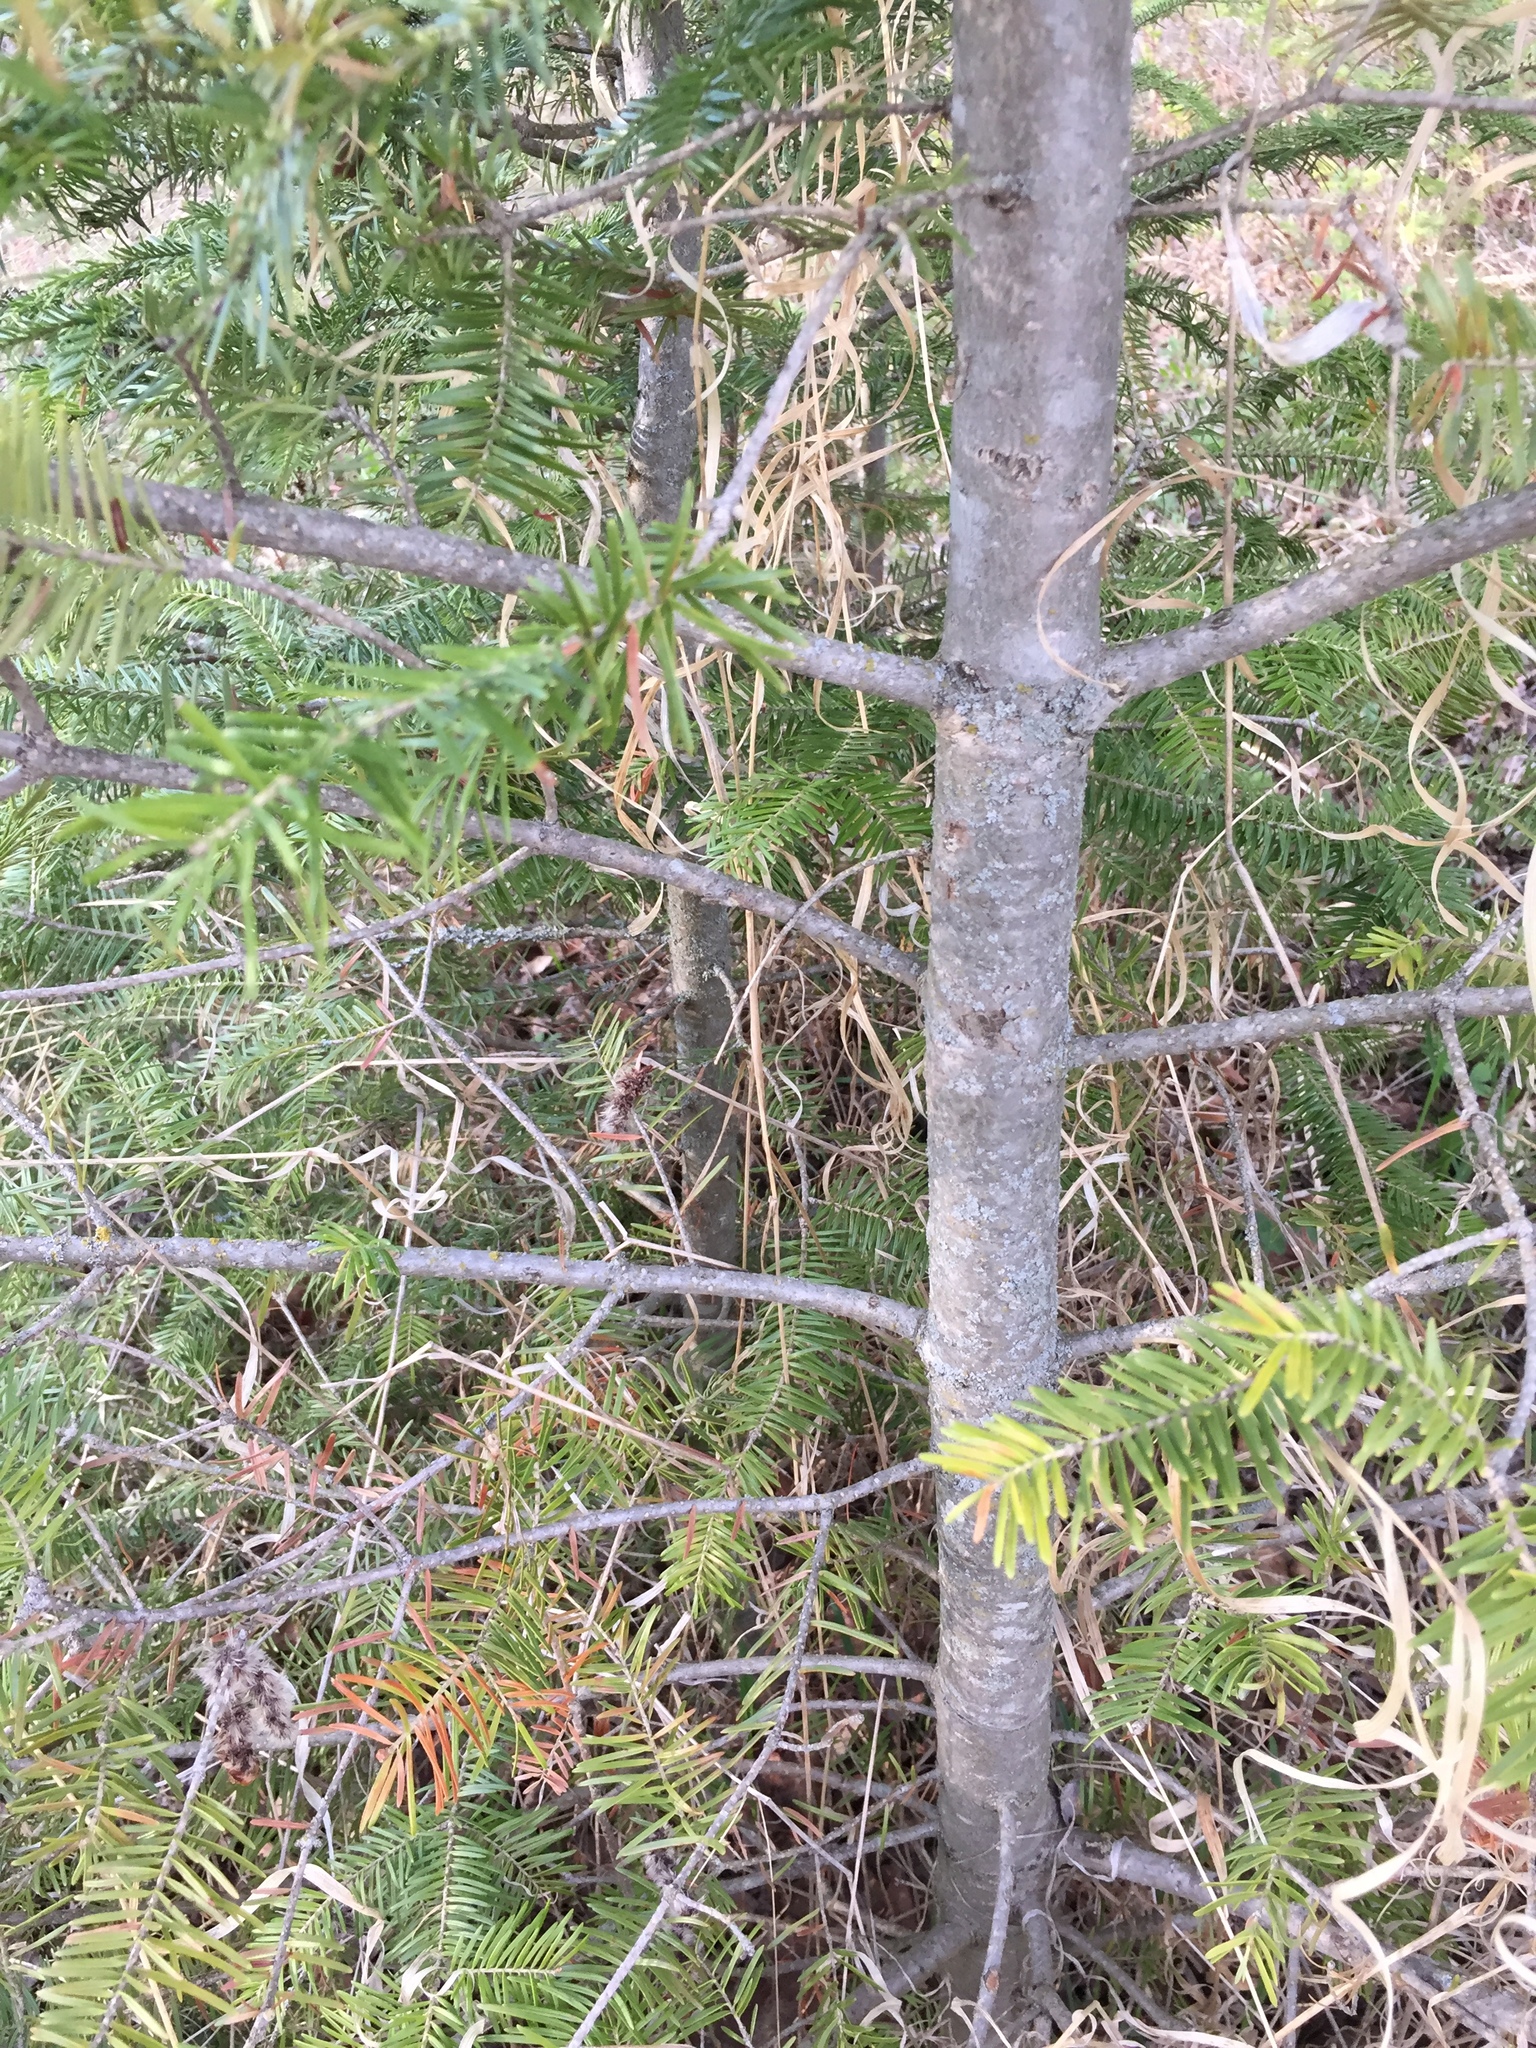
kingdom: Plantae
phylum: Tracheophyta
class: Pinopsida
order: Pinales
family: Pinaceae
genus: Abies
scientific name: Abies balsamea
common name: Balsam fir
